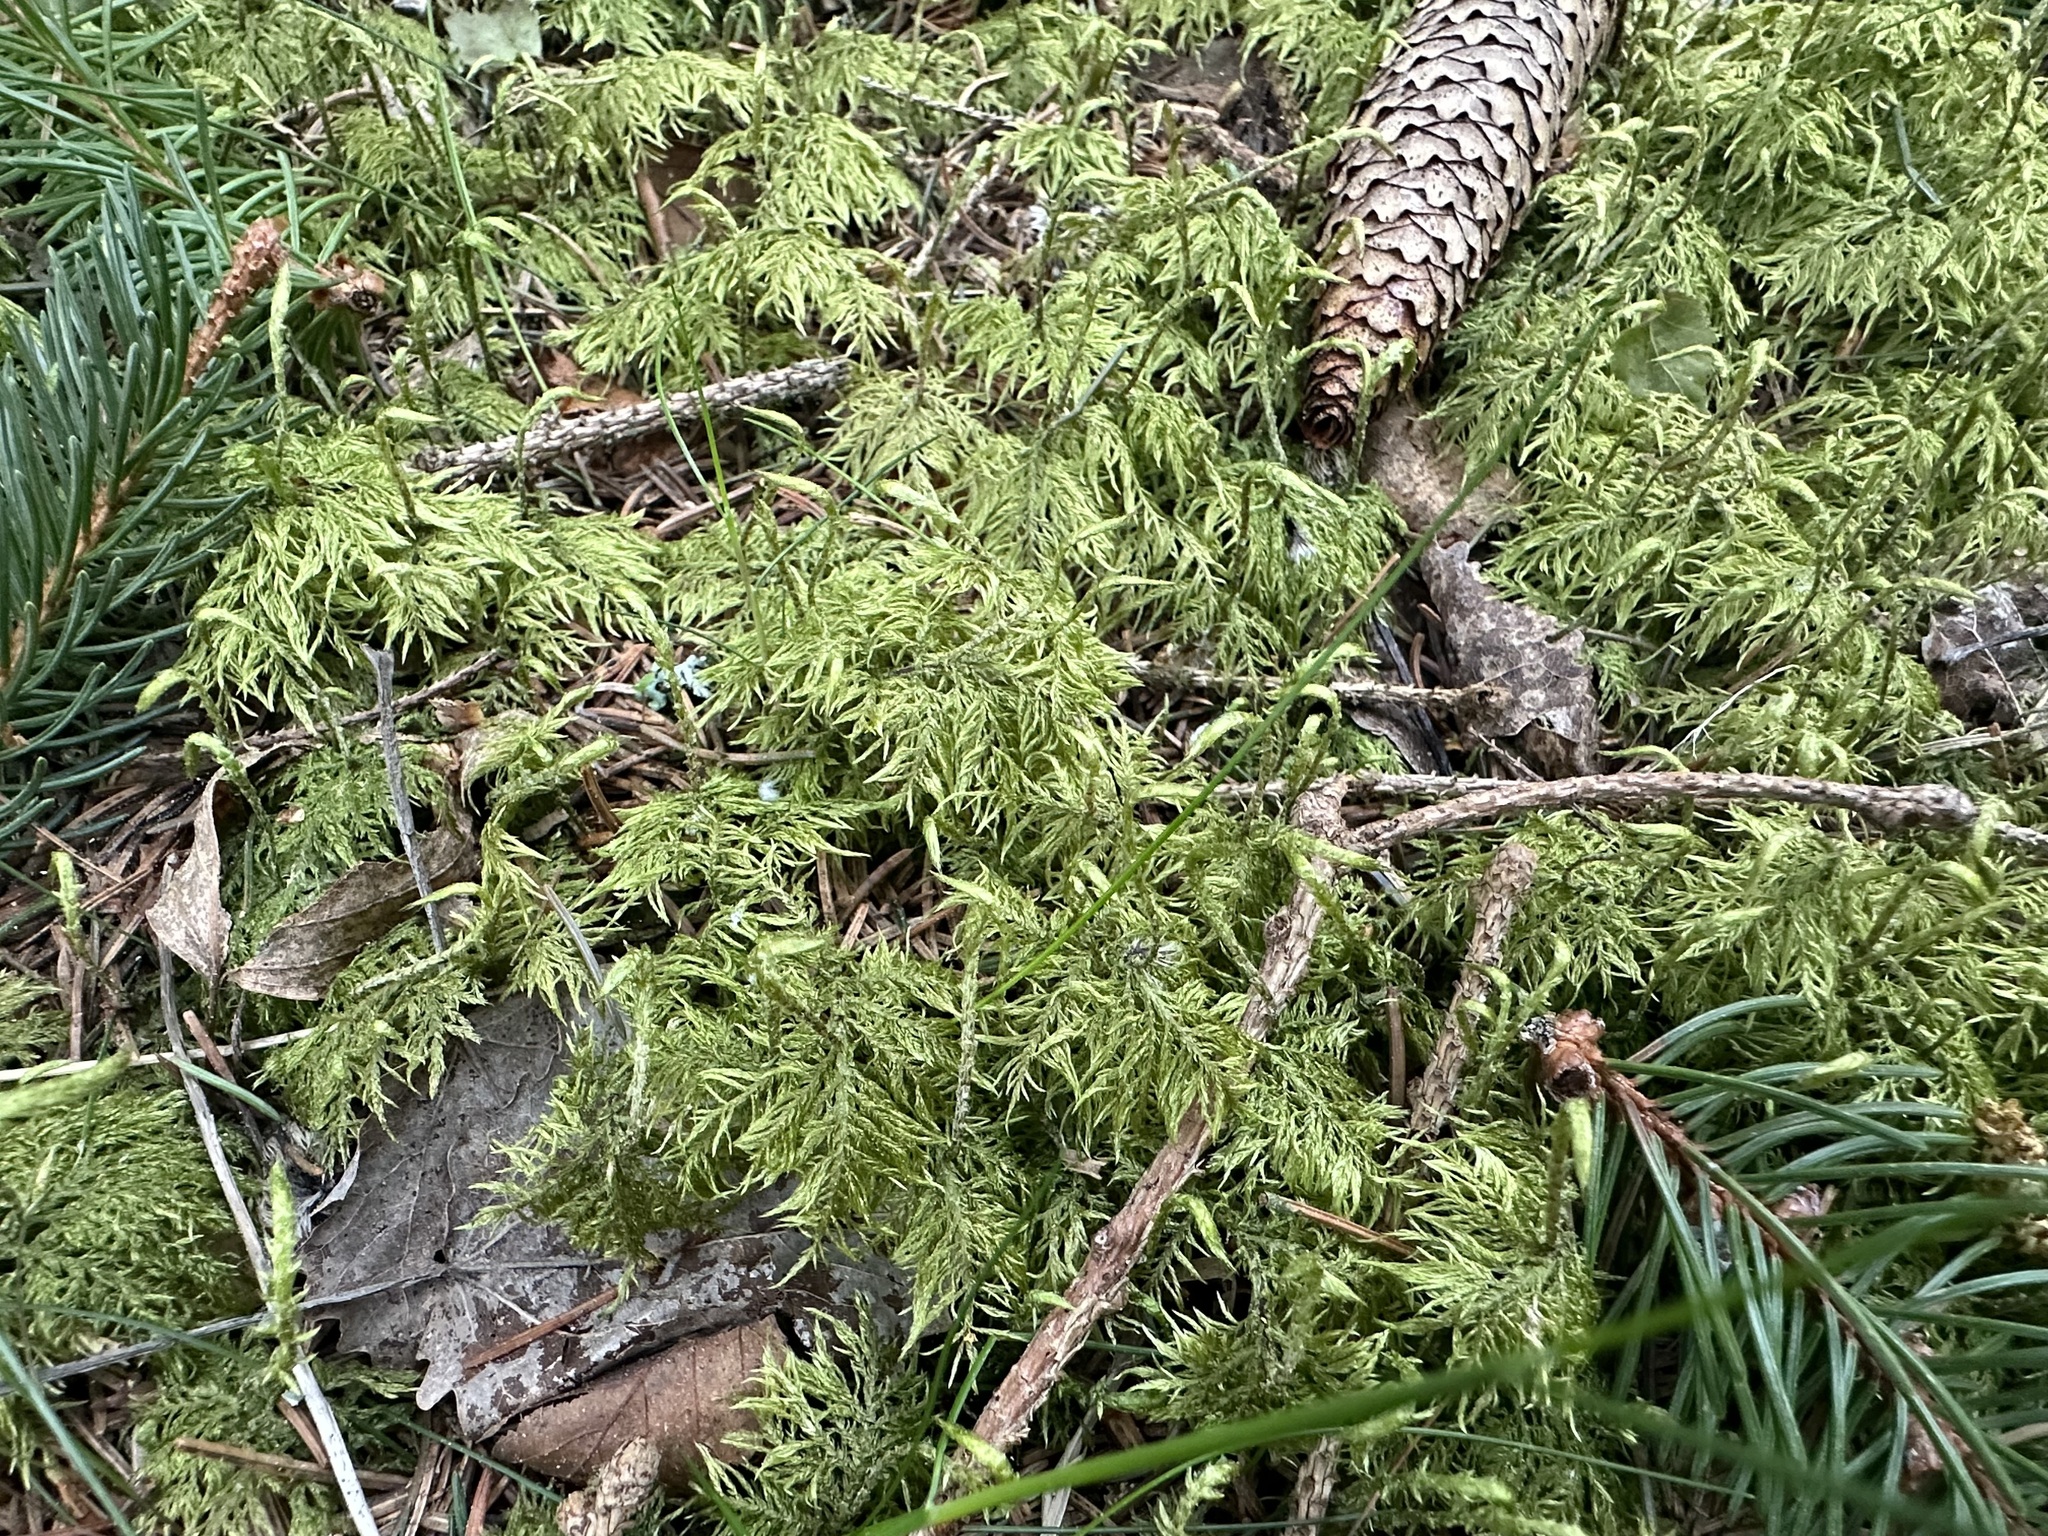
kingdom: Plantae
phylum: Bryophyta
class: Bryopsida
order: Hypnales
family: Hylocomiaceae
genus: Hylocomium
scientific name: Hylocomium splendens
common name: Stairstep moss
